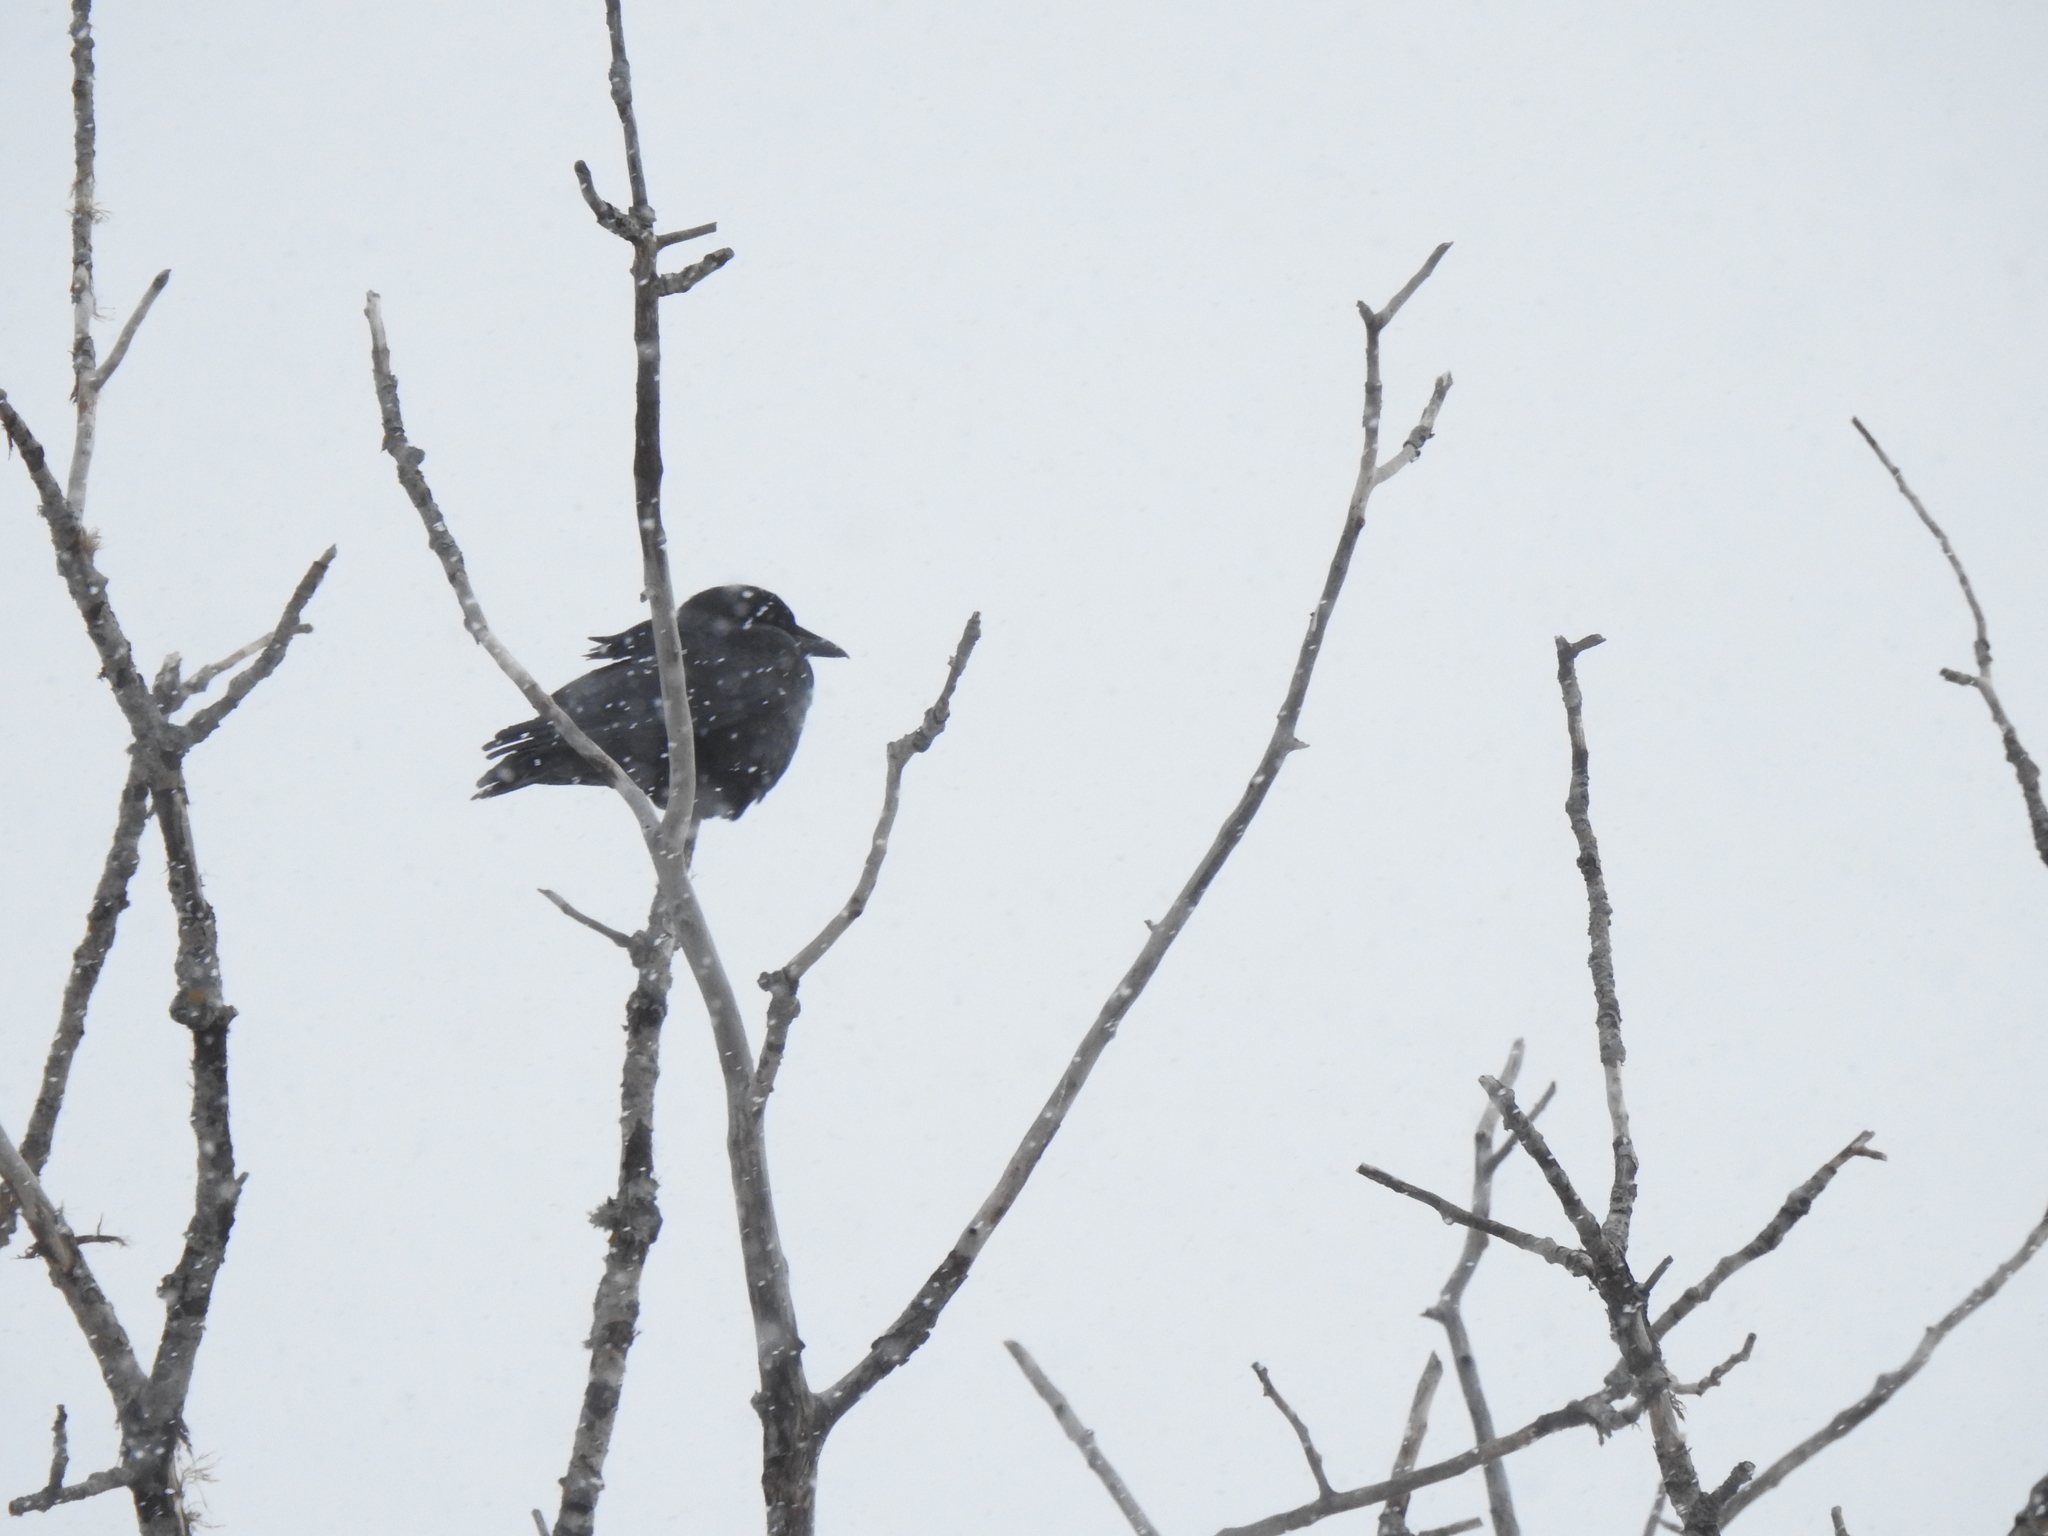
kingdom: Animalia
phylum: Chordata
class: Aves
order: Passeriformes
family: Corvidae
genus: Corvus
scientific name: Corvus brachyrhynchos
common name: American crow
